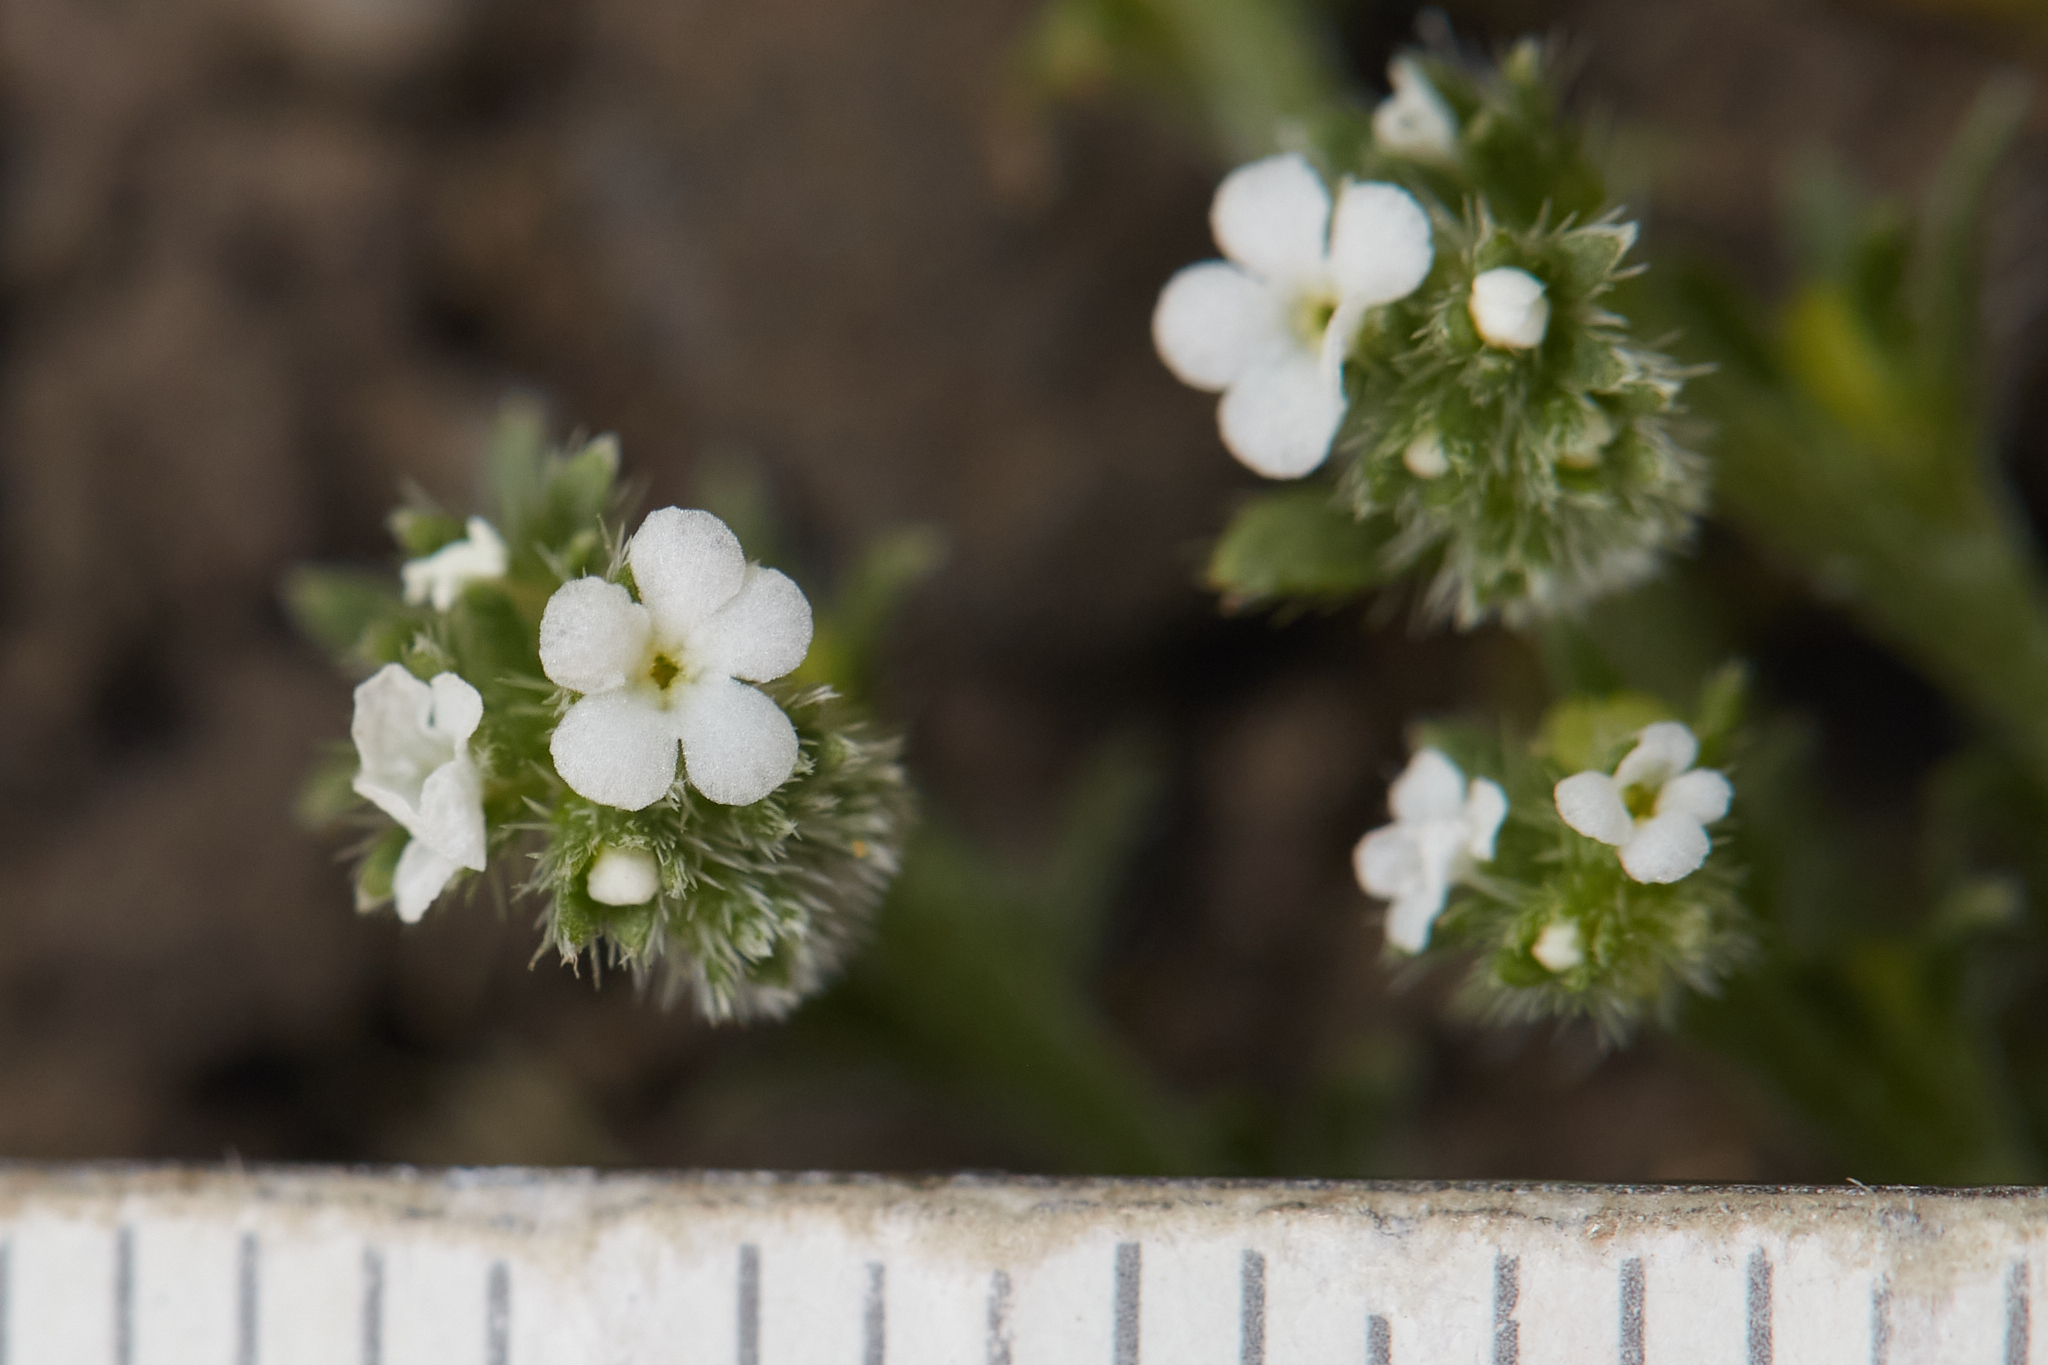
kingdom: Plantae
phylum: Tracheophyta
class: Magnoliopsida
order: Boraginales
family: Boraginaceae
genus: Plagiobothrys
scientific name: Plagiobothrys bracteatus
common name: Bract popcorn-flower
